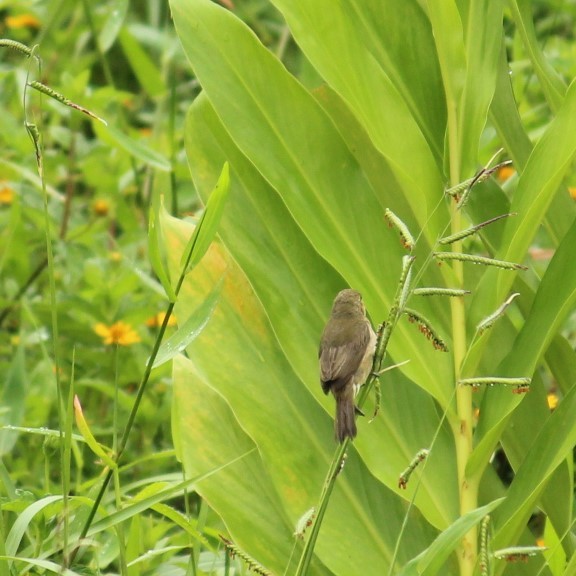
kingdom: Animalia
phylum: Chordata
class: Aves
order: Passeriformes
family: Thraupidae
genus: Sporophila
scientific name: Sporophila caerulescens
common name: Double-collared seedeater
